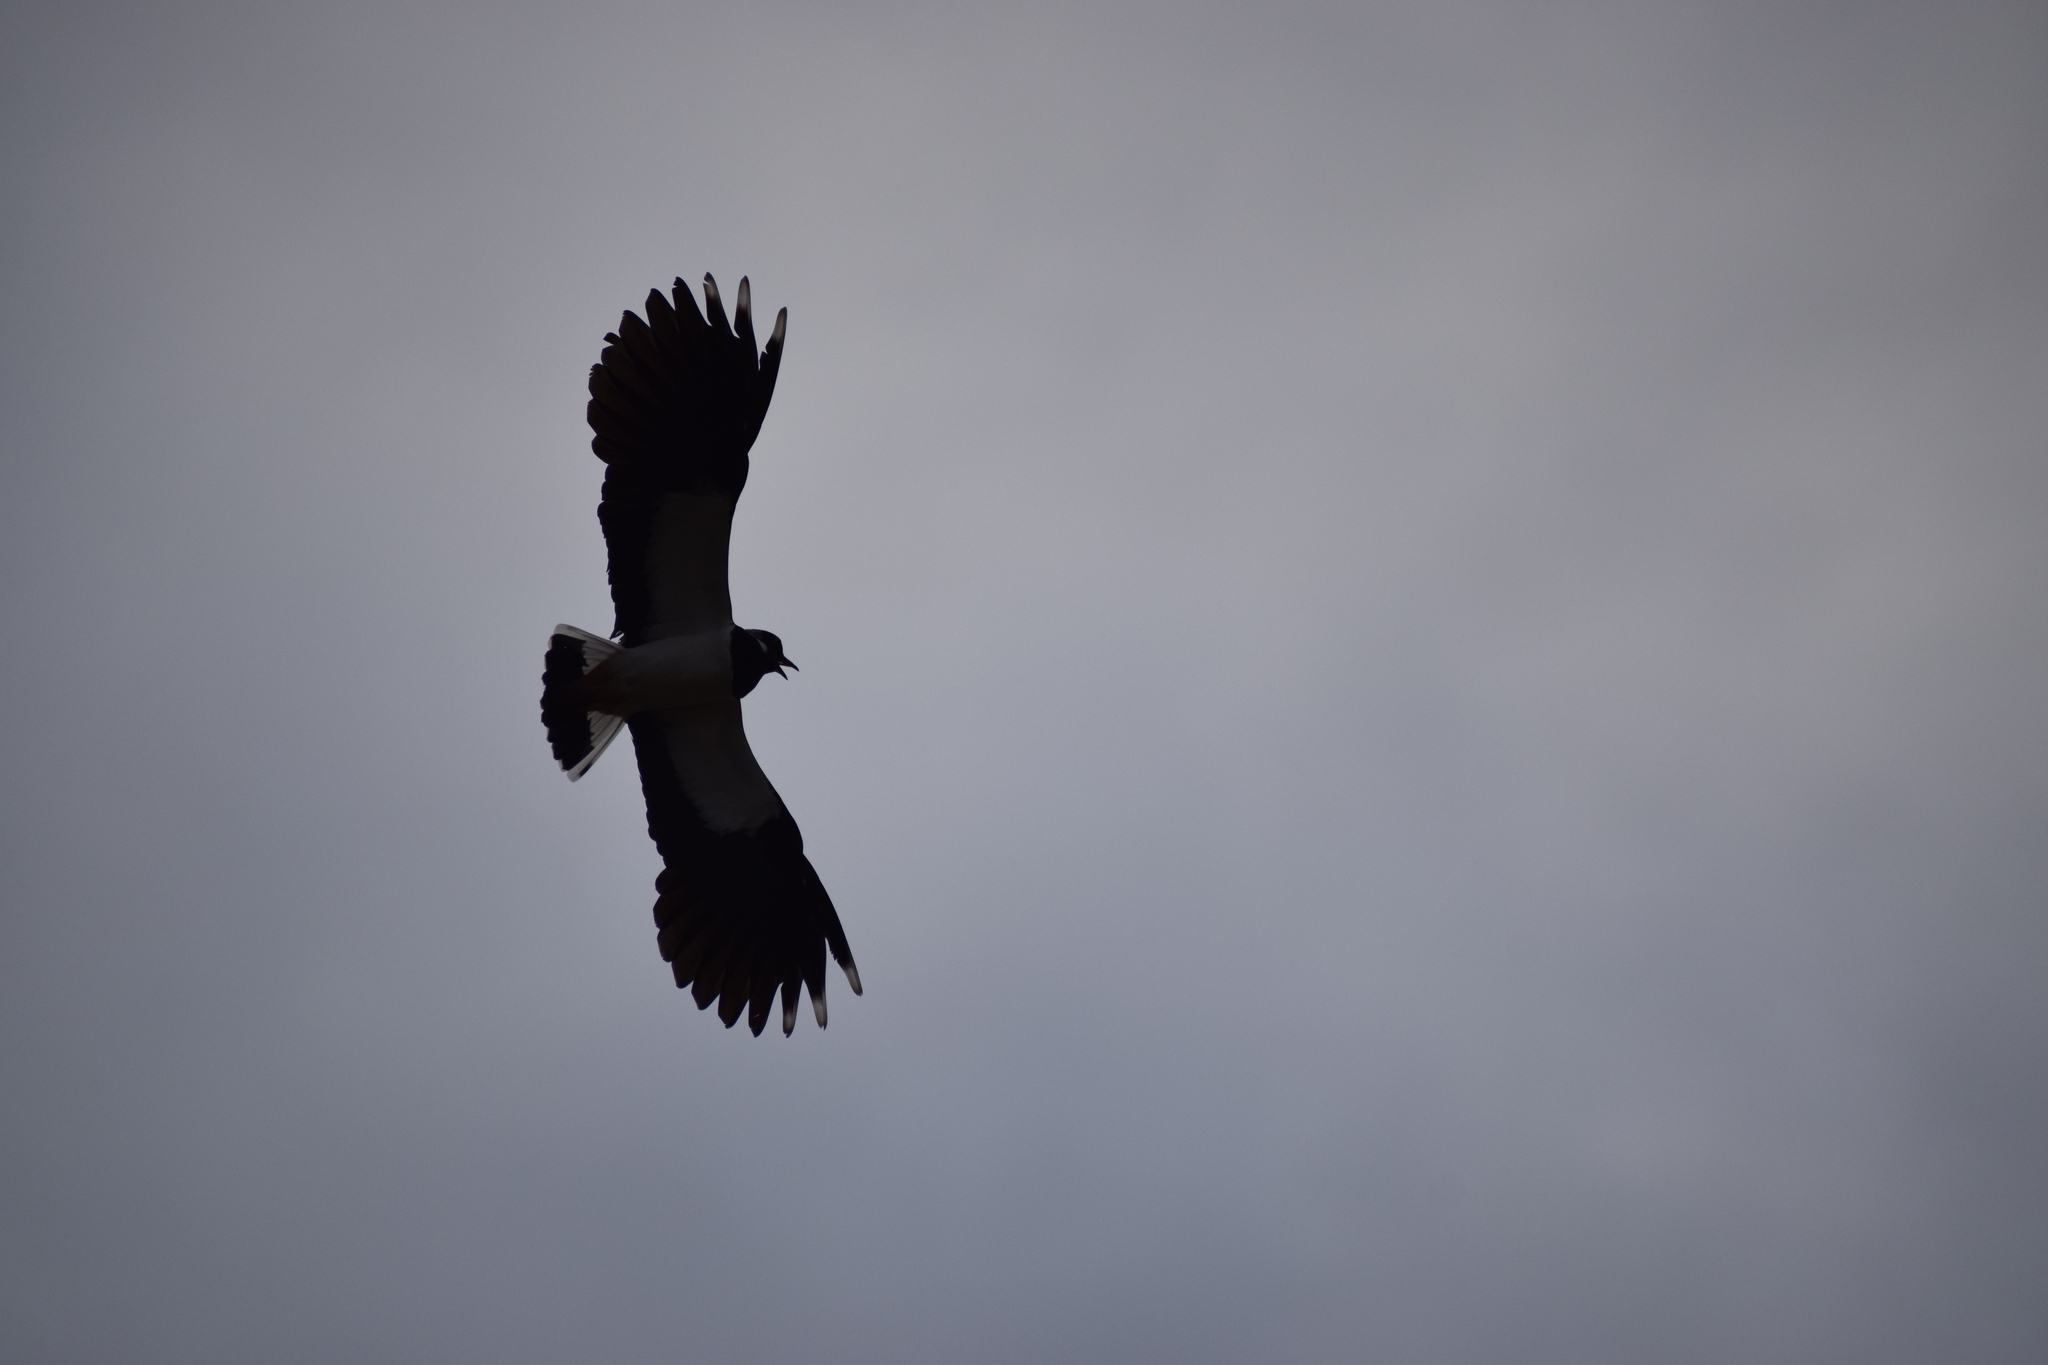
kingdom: Animalia
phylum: Chordata
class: Aves
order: Charadriiformes
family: Charadriidae
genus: Vanellus
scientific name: Vanellus vanellus
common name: Northern lapwing
